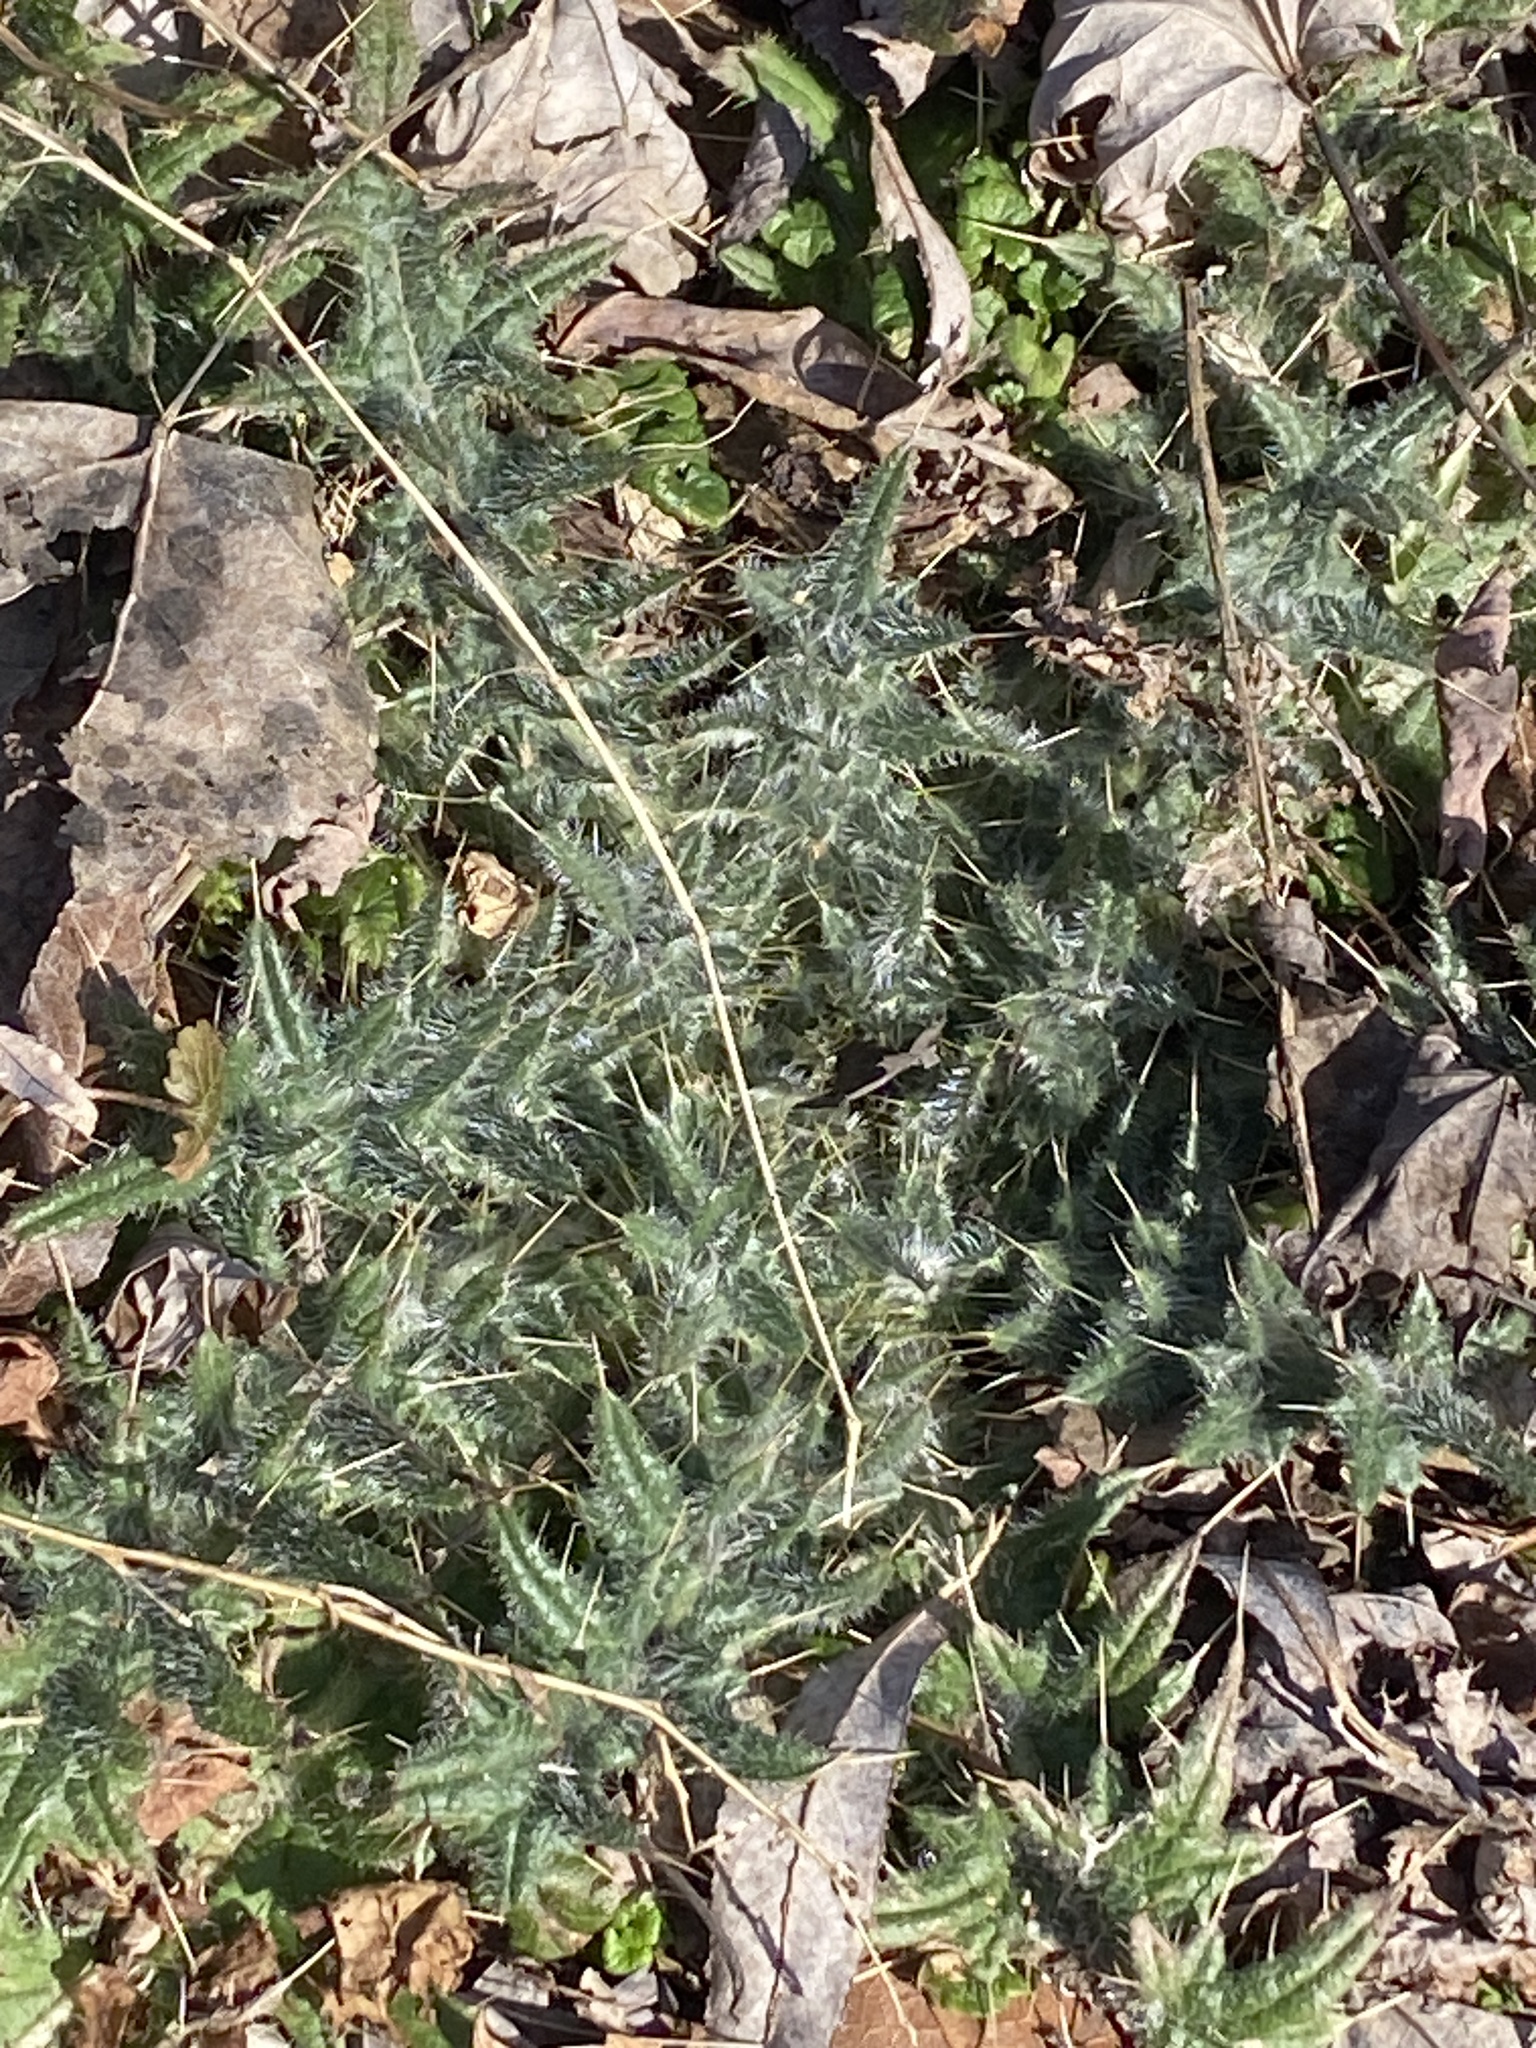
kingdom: Plantae
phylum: Tracheophyta
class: Magnoliopsida
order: Asterales
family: Asteraceae
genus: Cirsium
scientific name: Cirsium vulgare
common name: Bull thistle
